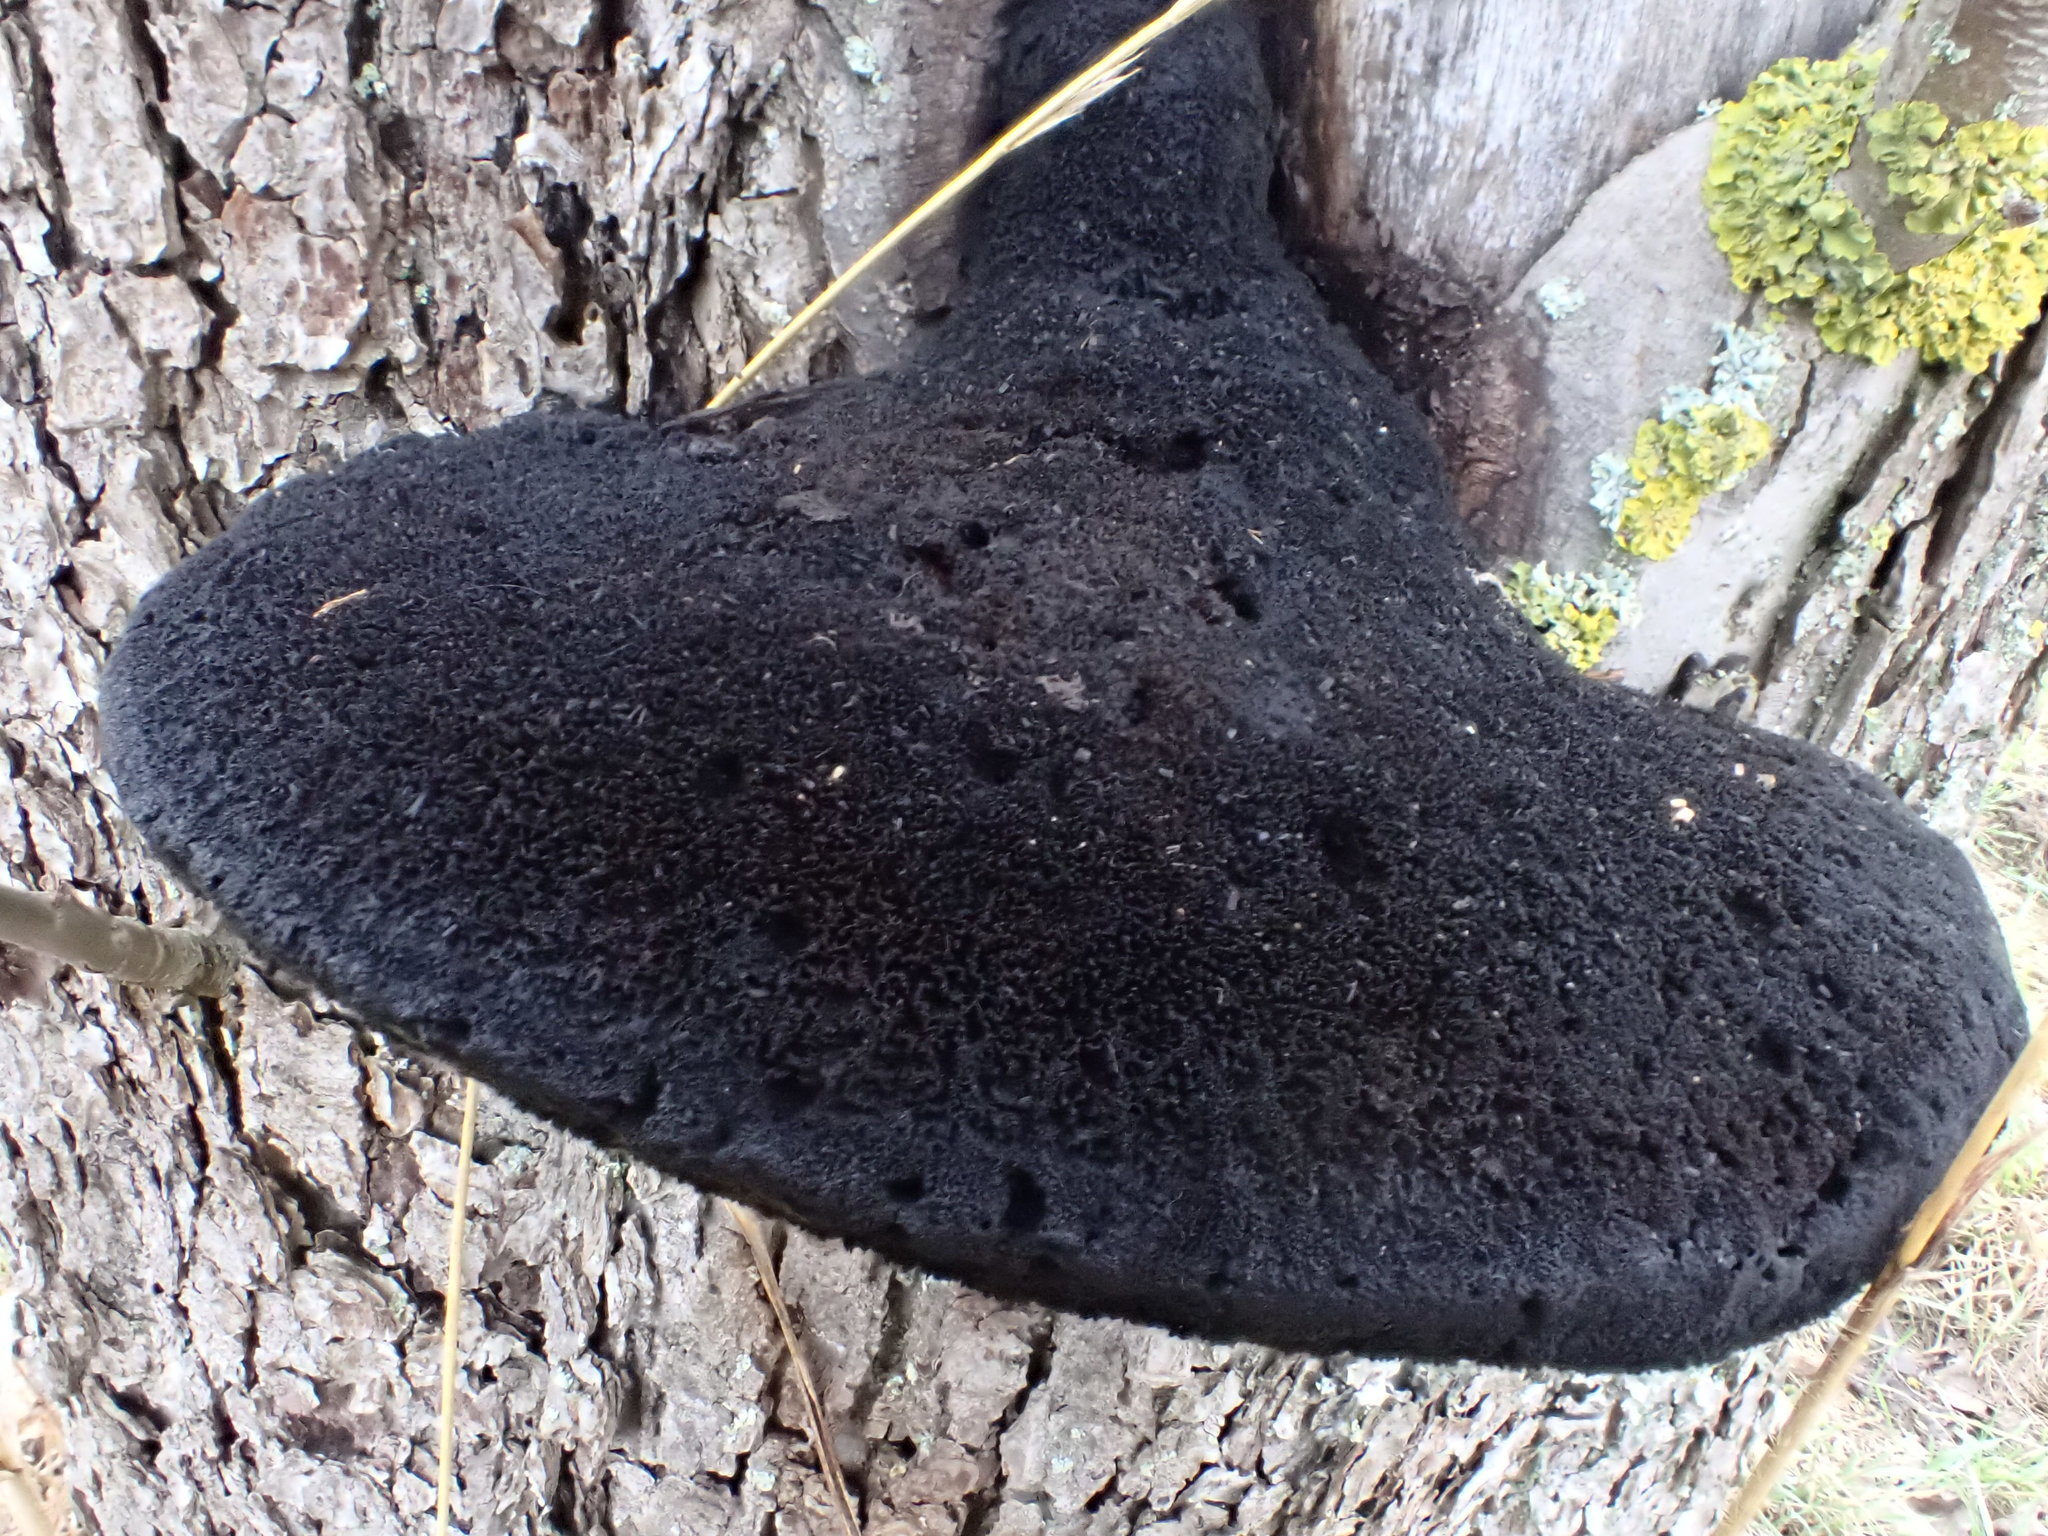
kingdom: Fungi
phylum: Basidiomycota
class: Agaricomycetes
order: Hymenochaetales
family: Hymenochaetaceae
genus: Inonotus
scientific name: Inonotus hispidus
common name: Shaggy bracket
